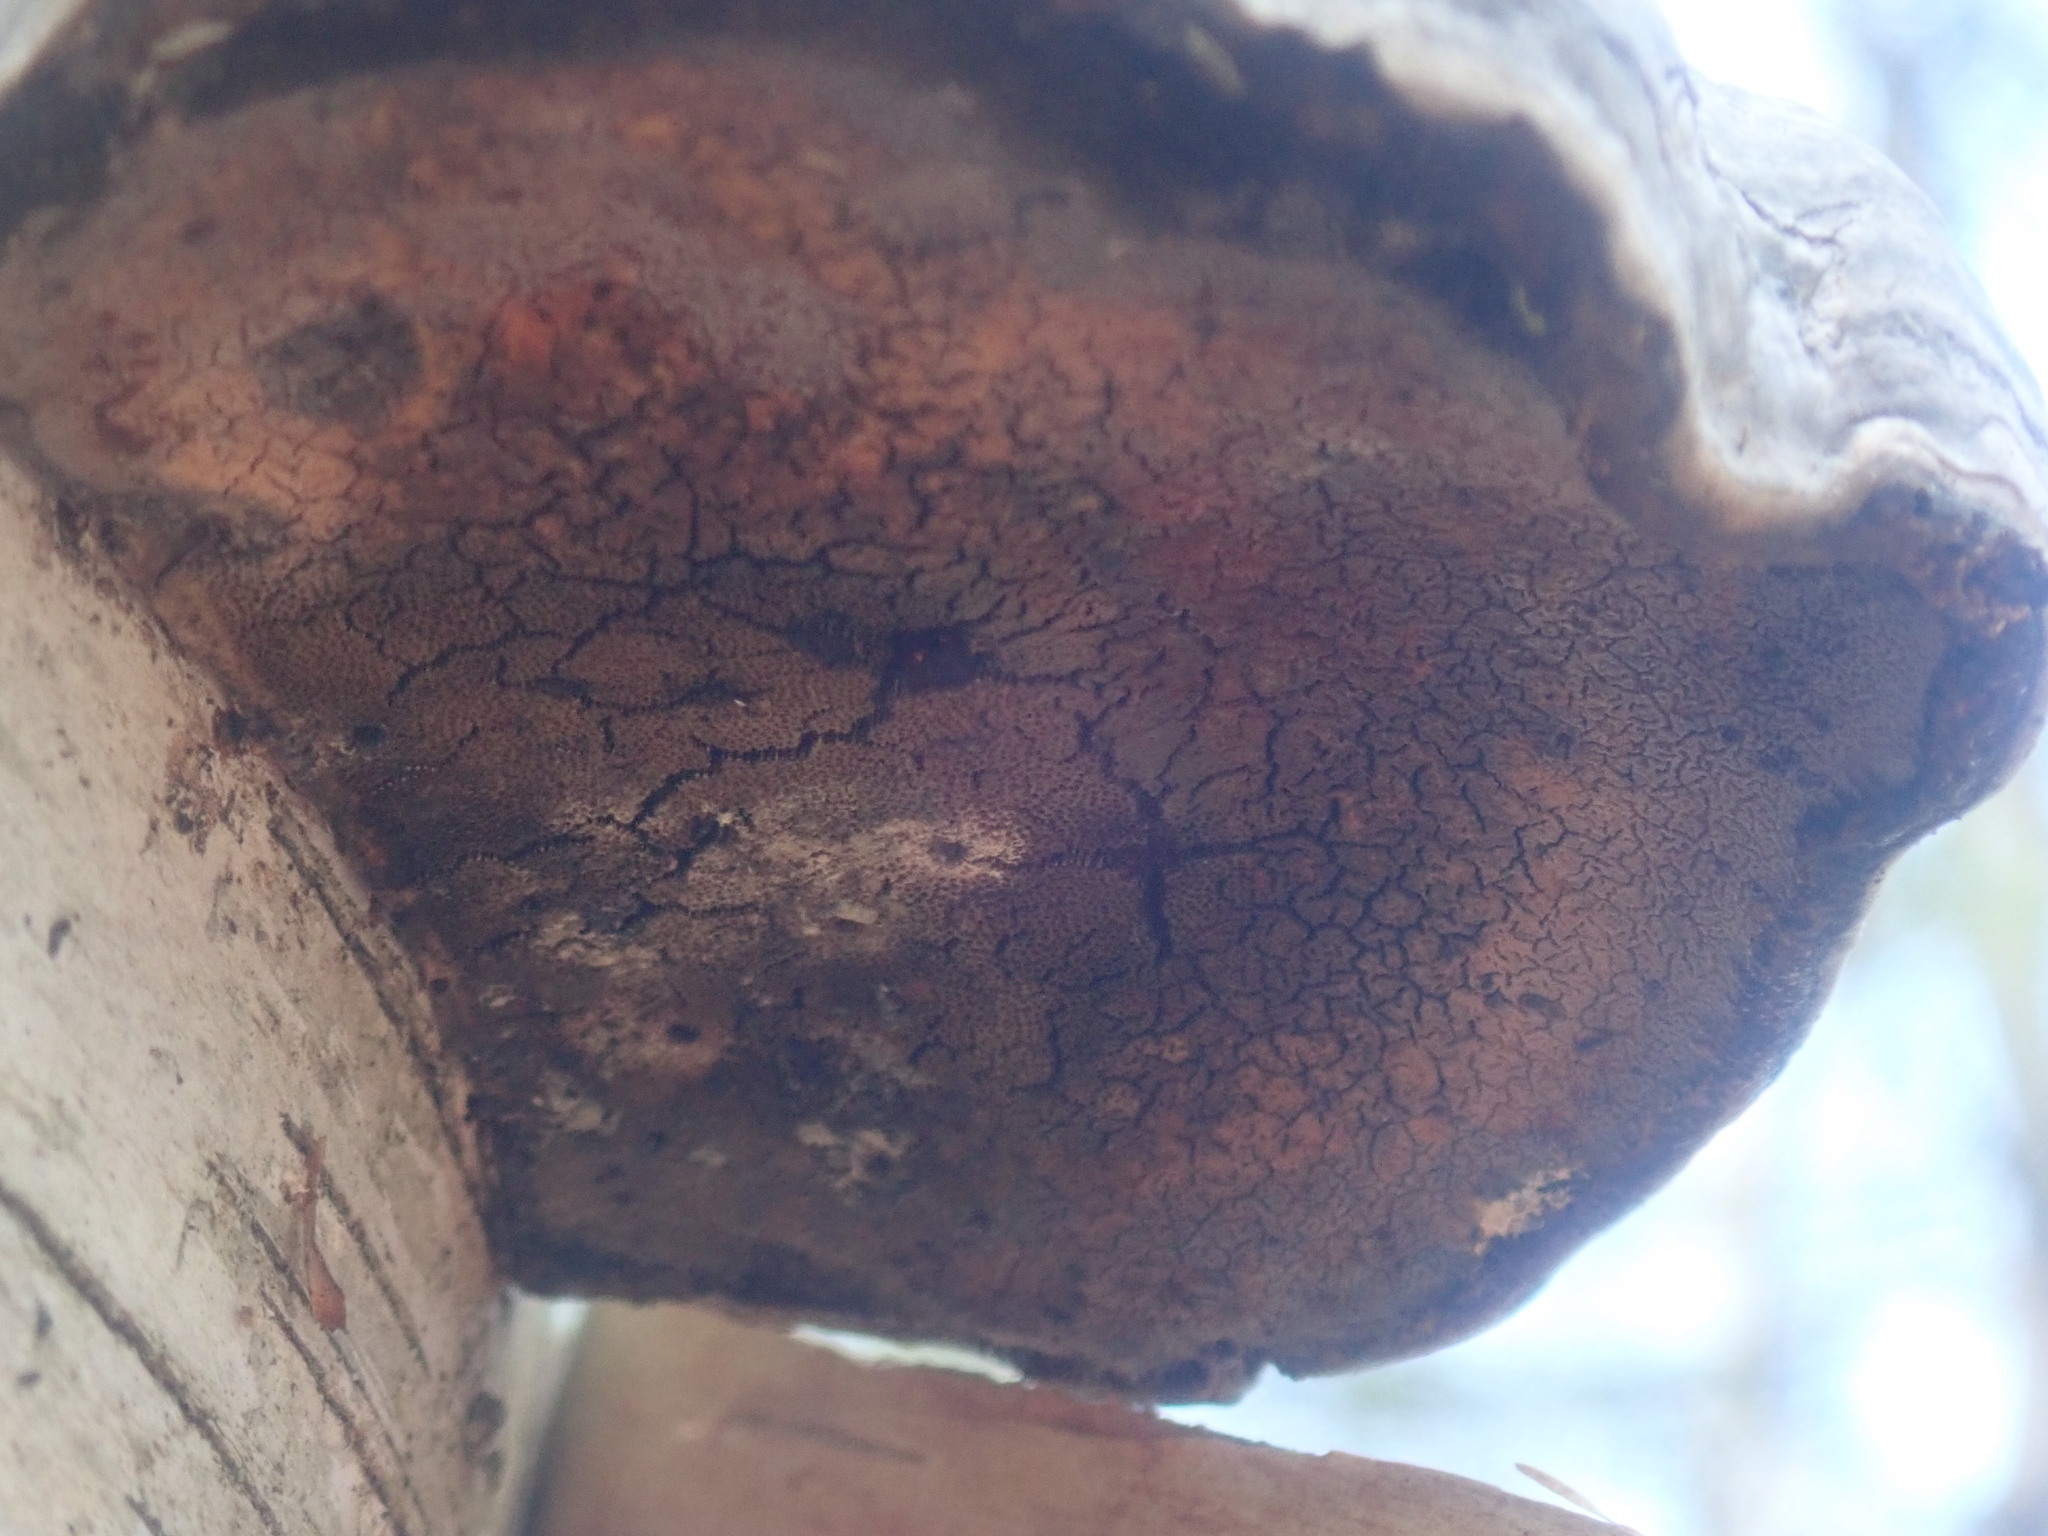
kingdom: Fungi
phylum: Basidiomycota
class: Agaricomycetes
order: Polyporales
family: Polyporaceae
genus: Fomes
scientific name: Fomes fomentarius
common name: Hoof fungus
